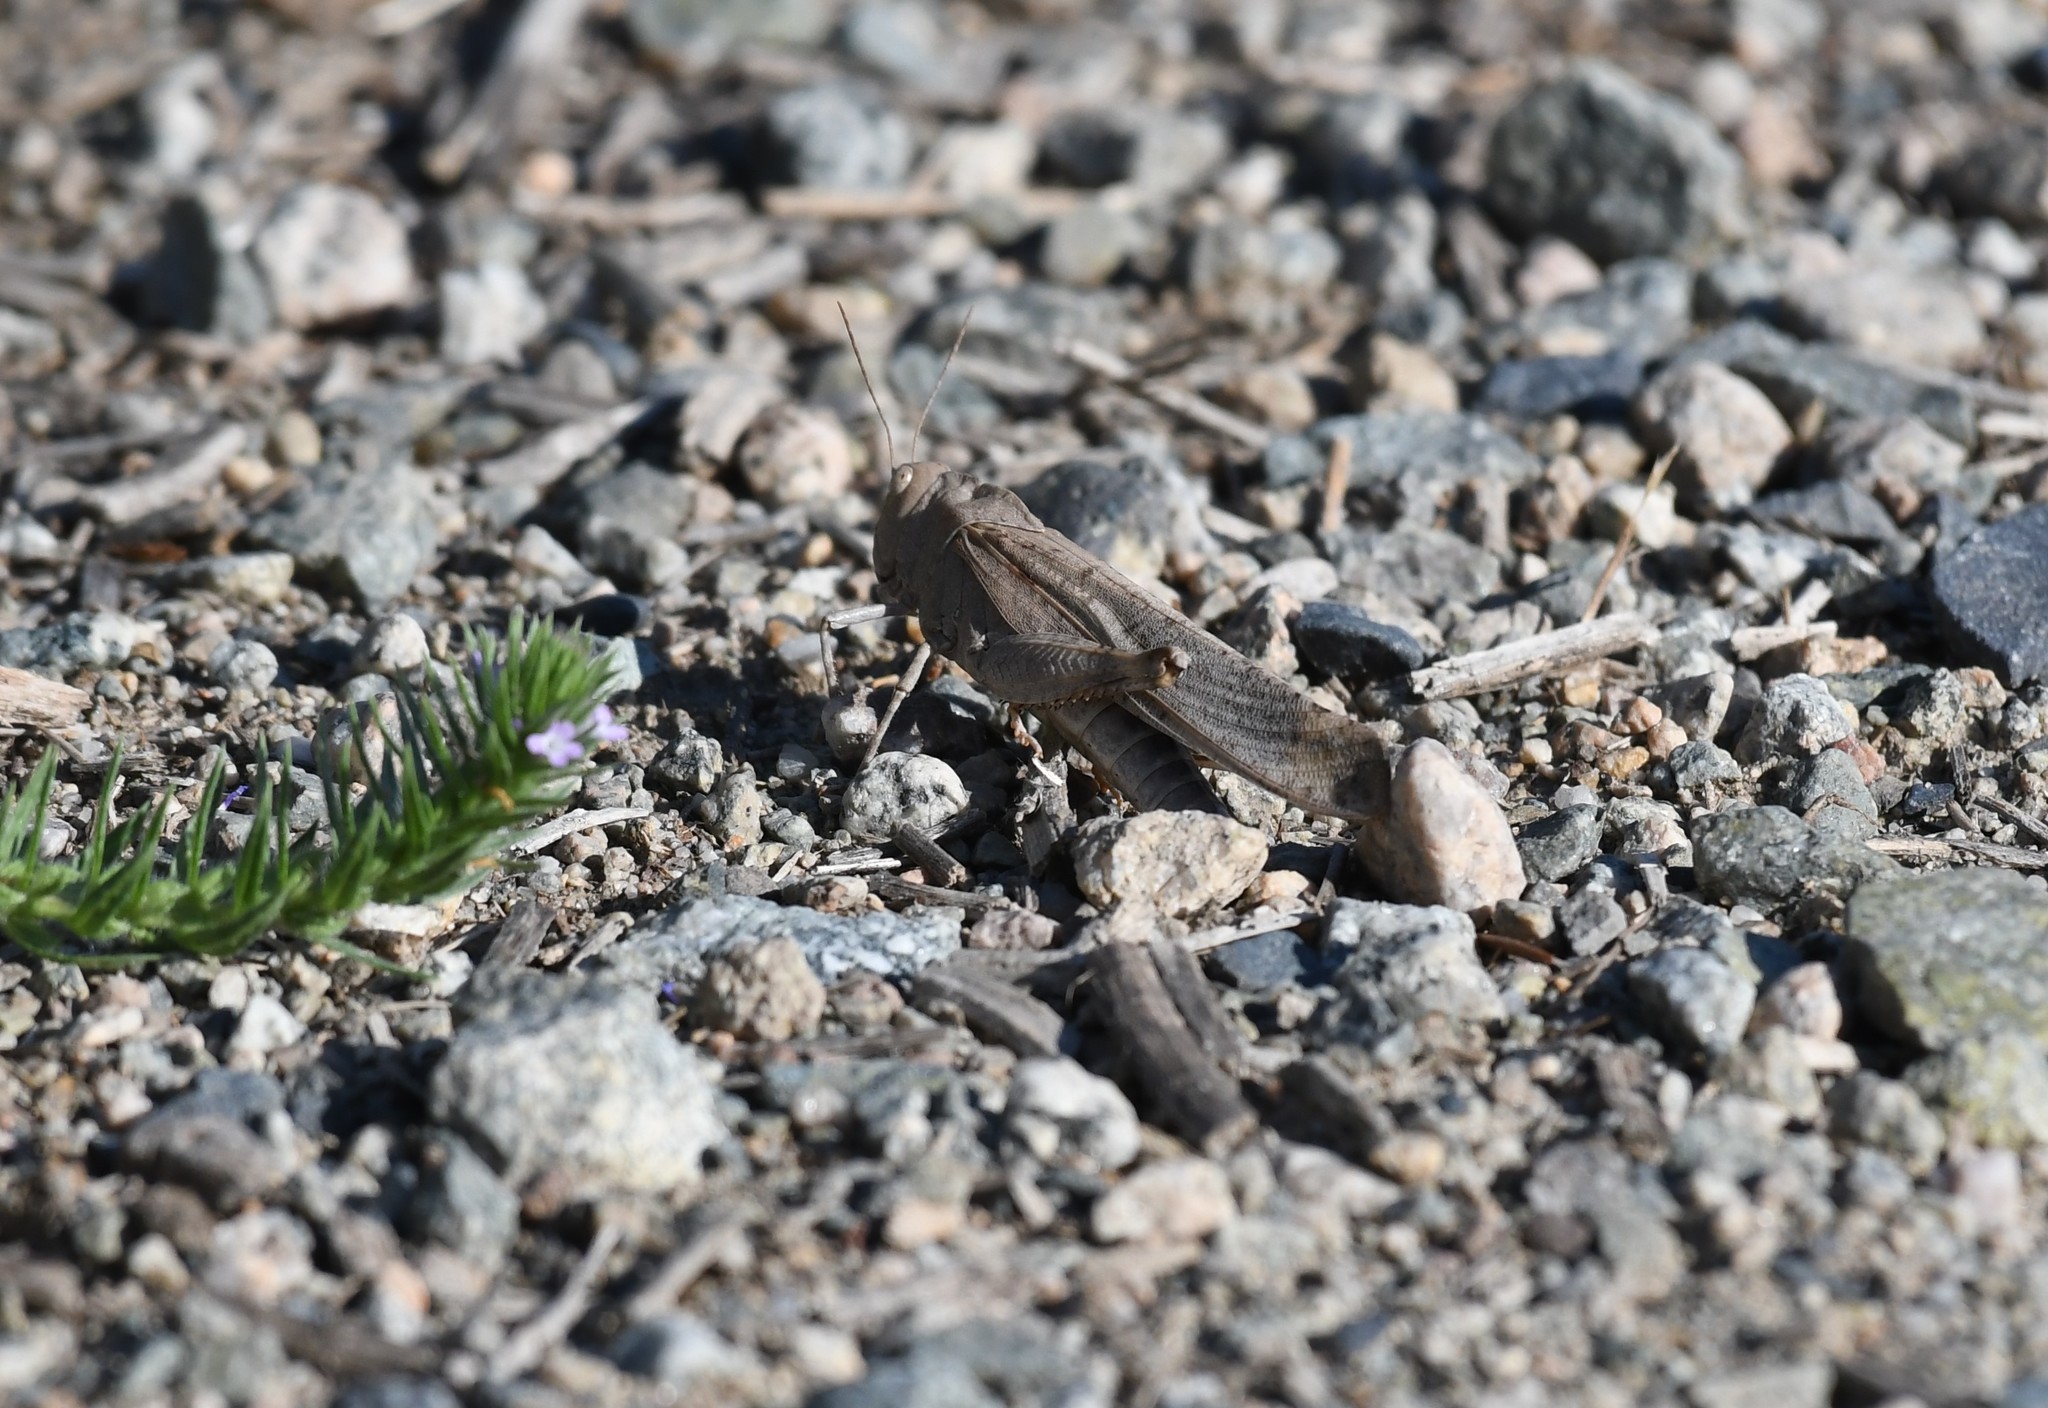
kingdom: Animalia
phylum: Arthropoda
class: Insecta
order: Orthoptera
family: Acrididae
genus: Dissosteira
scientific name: Dissosteira carolina
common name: Carolina grasshopper
